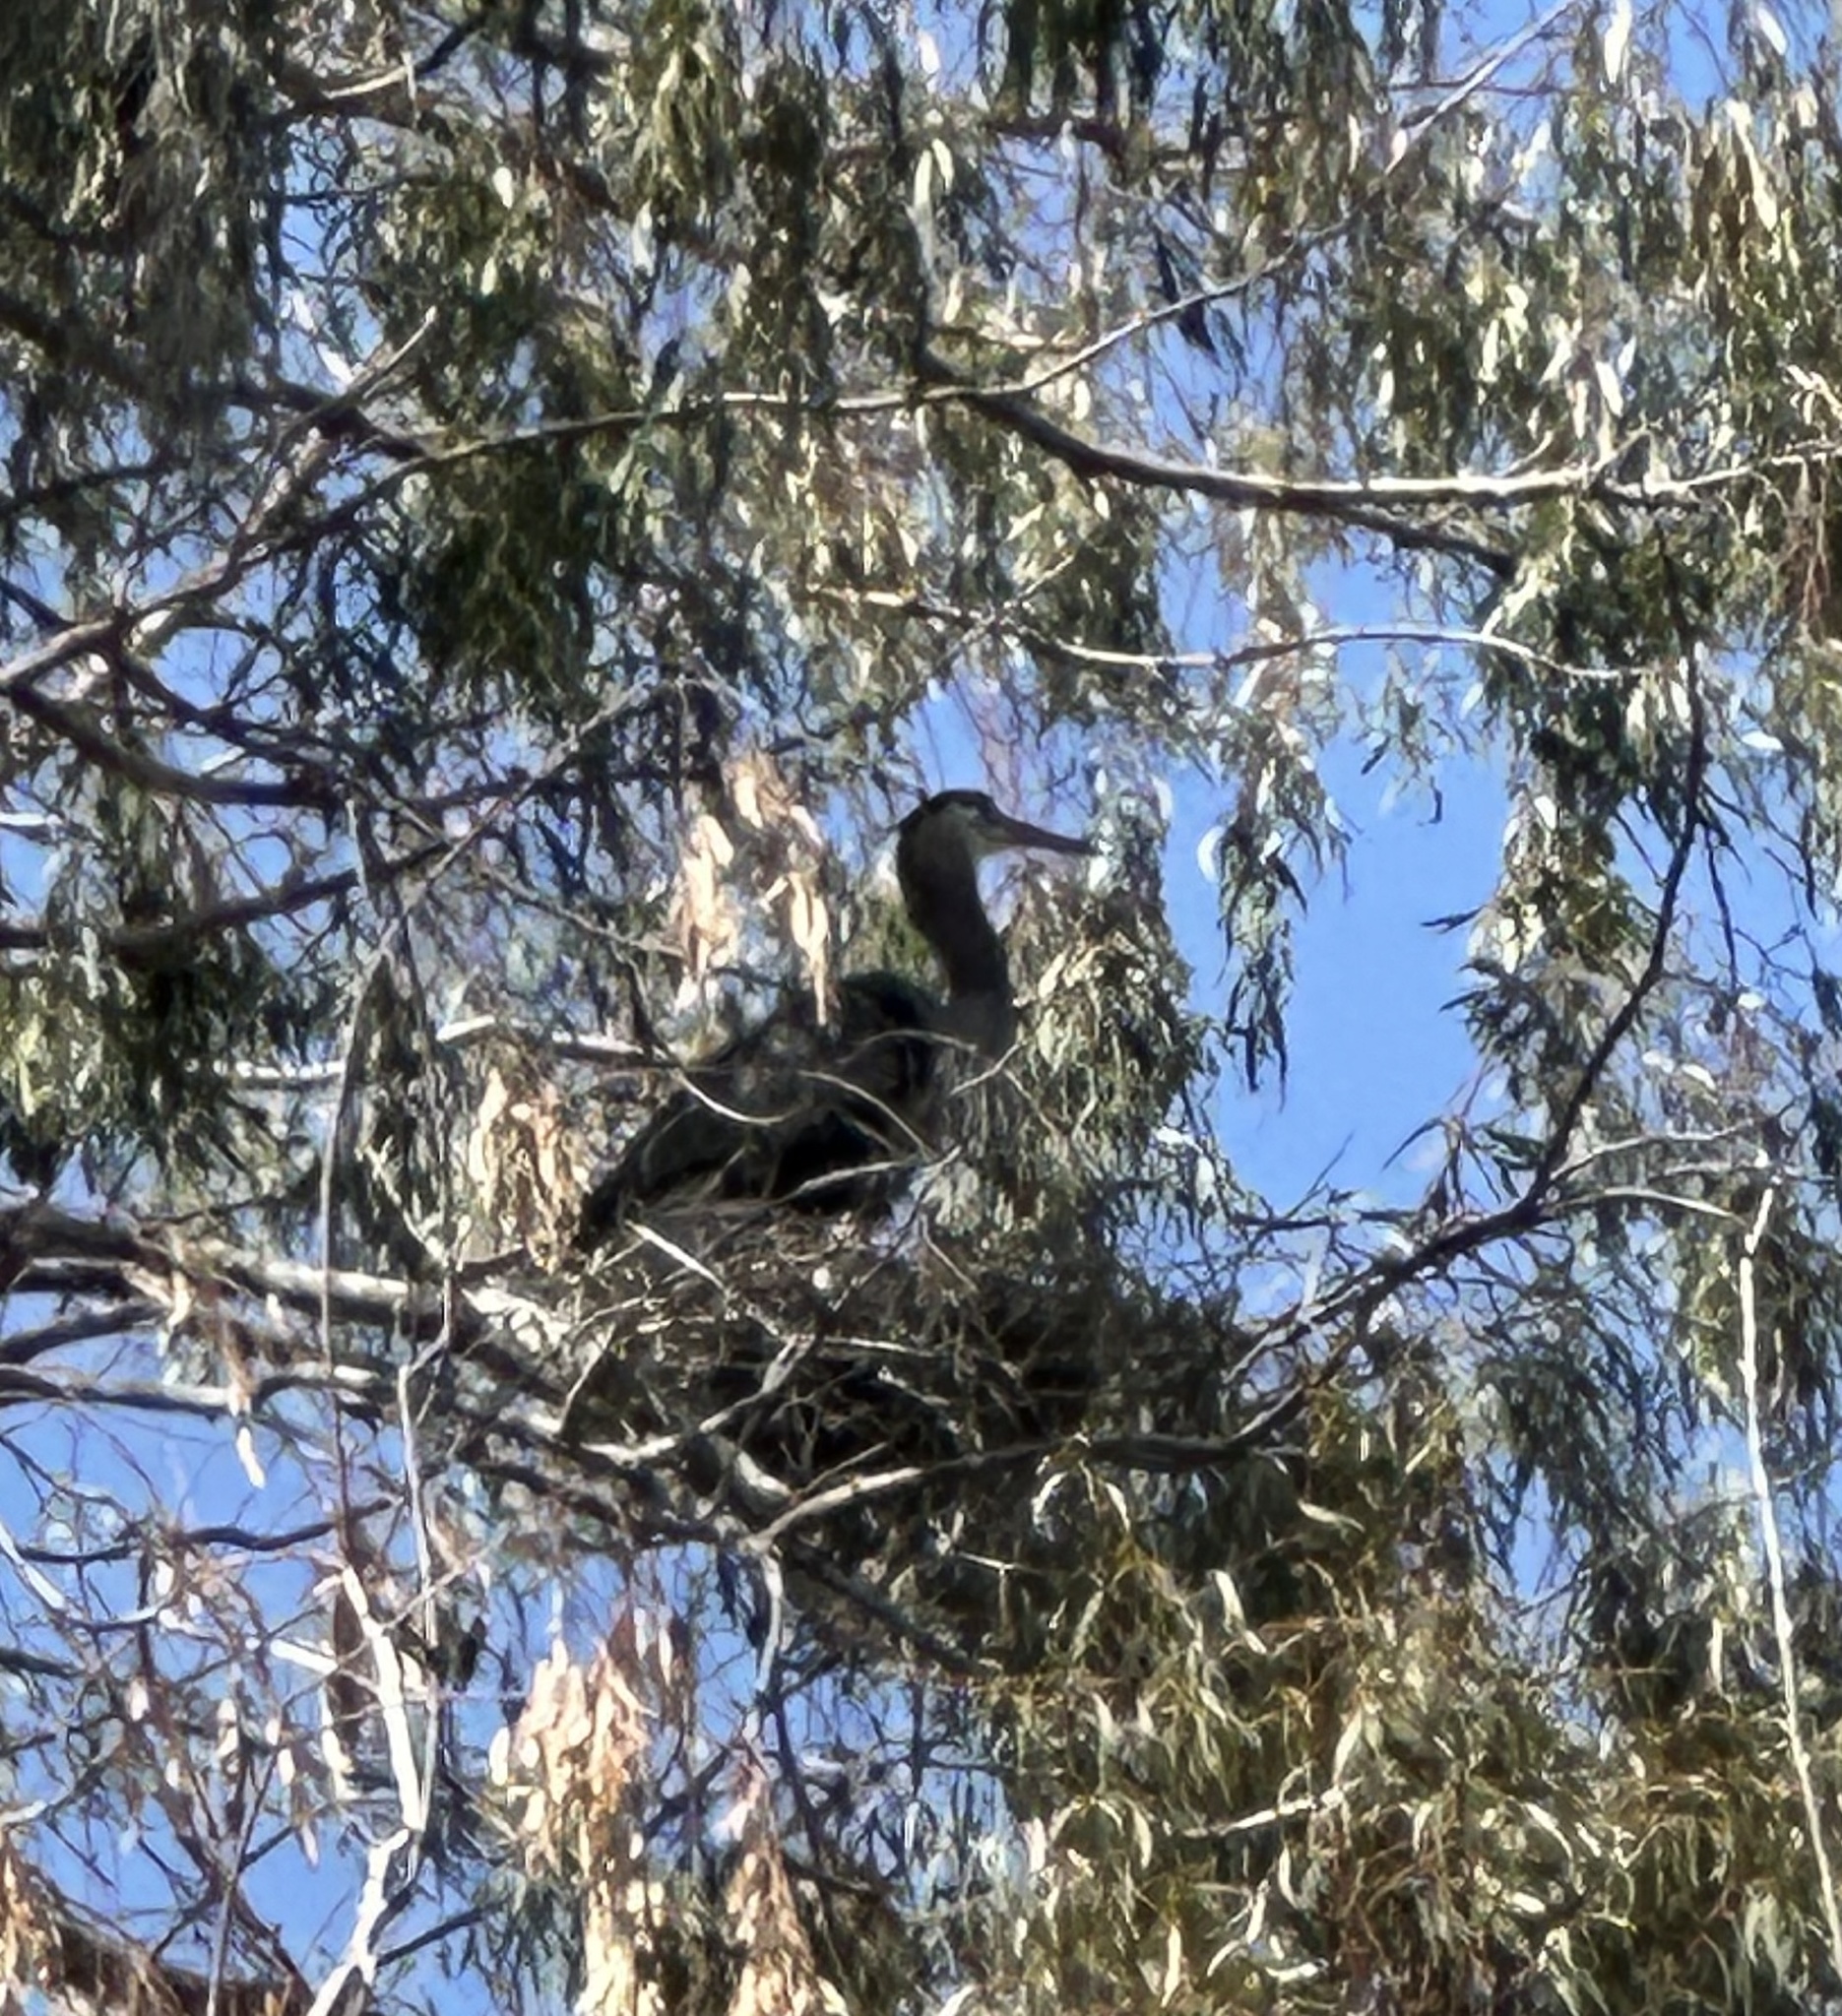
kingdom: Animalia
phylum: Chordata
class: Aves
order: Pelecaniformes
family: Ardeidae
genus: Ardea
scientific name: Ardea herodias
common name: Great blue heron
